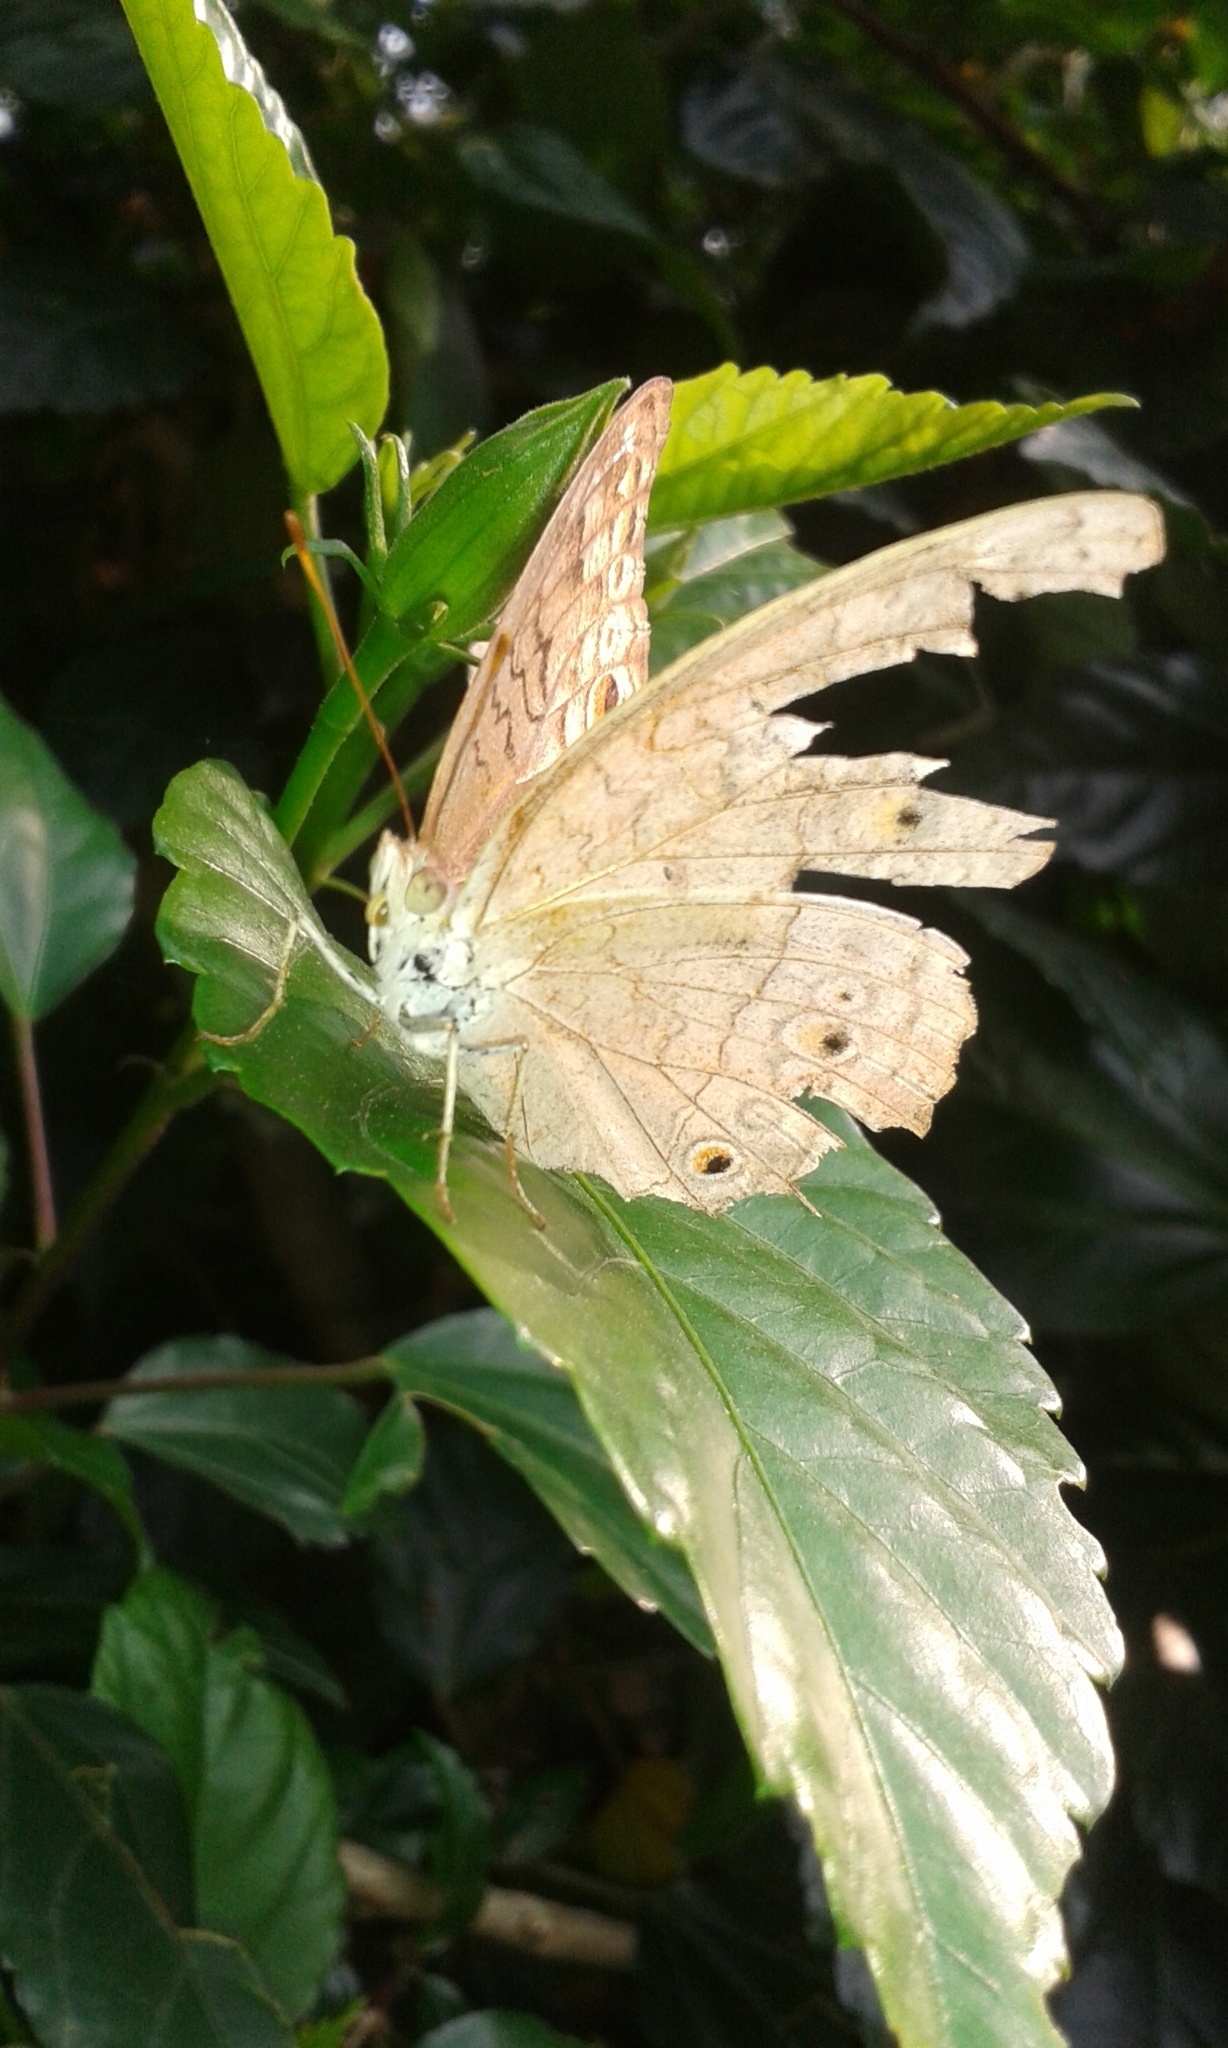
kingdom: Animalia
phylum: Arthropoda
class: Insecta
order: Lepidoptera
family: Nymphalidae
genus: Junonia
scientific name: Junonia atlites
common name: Grey pansy
